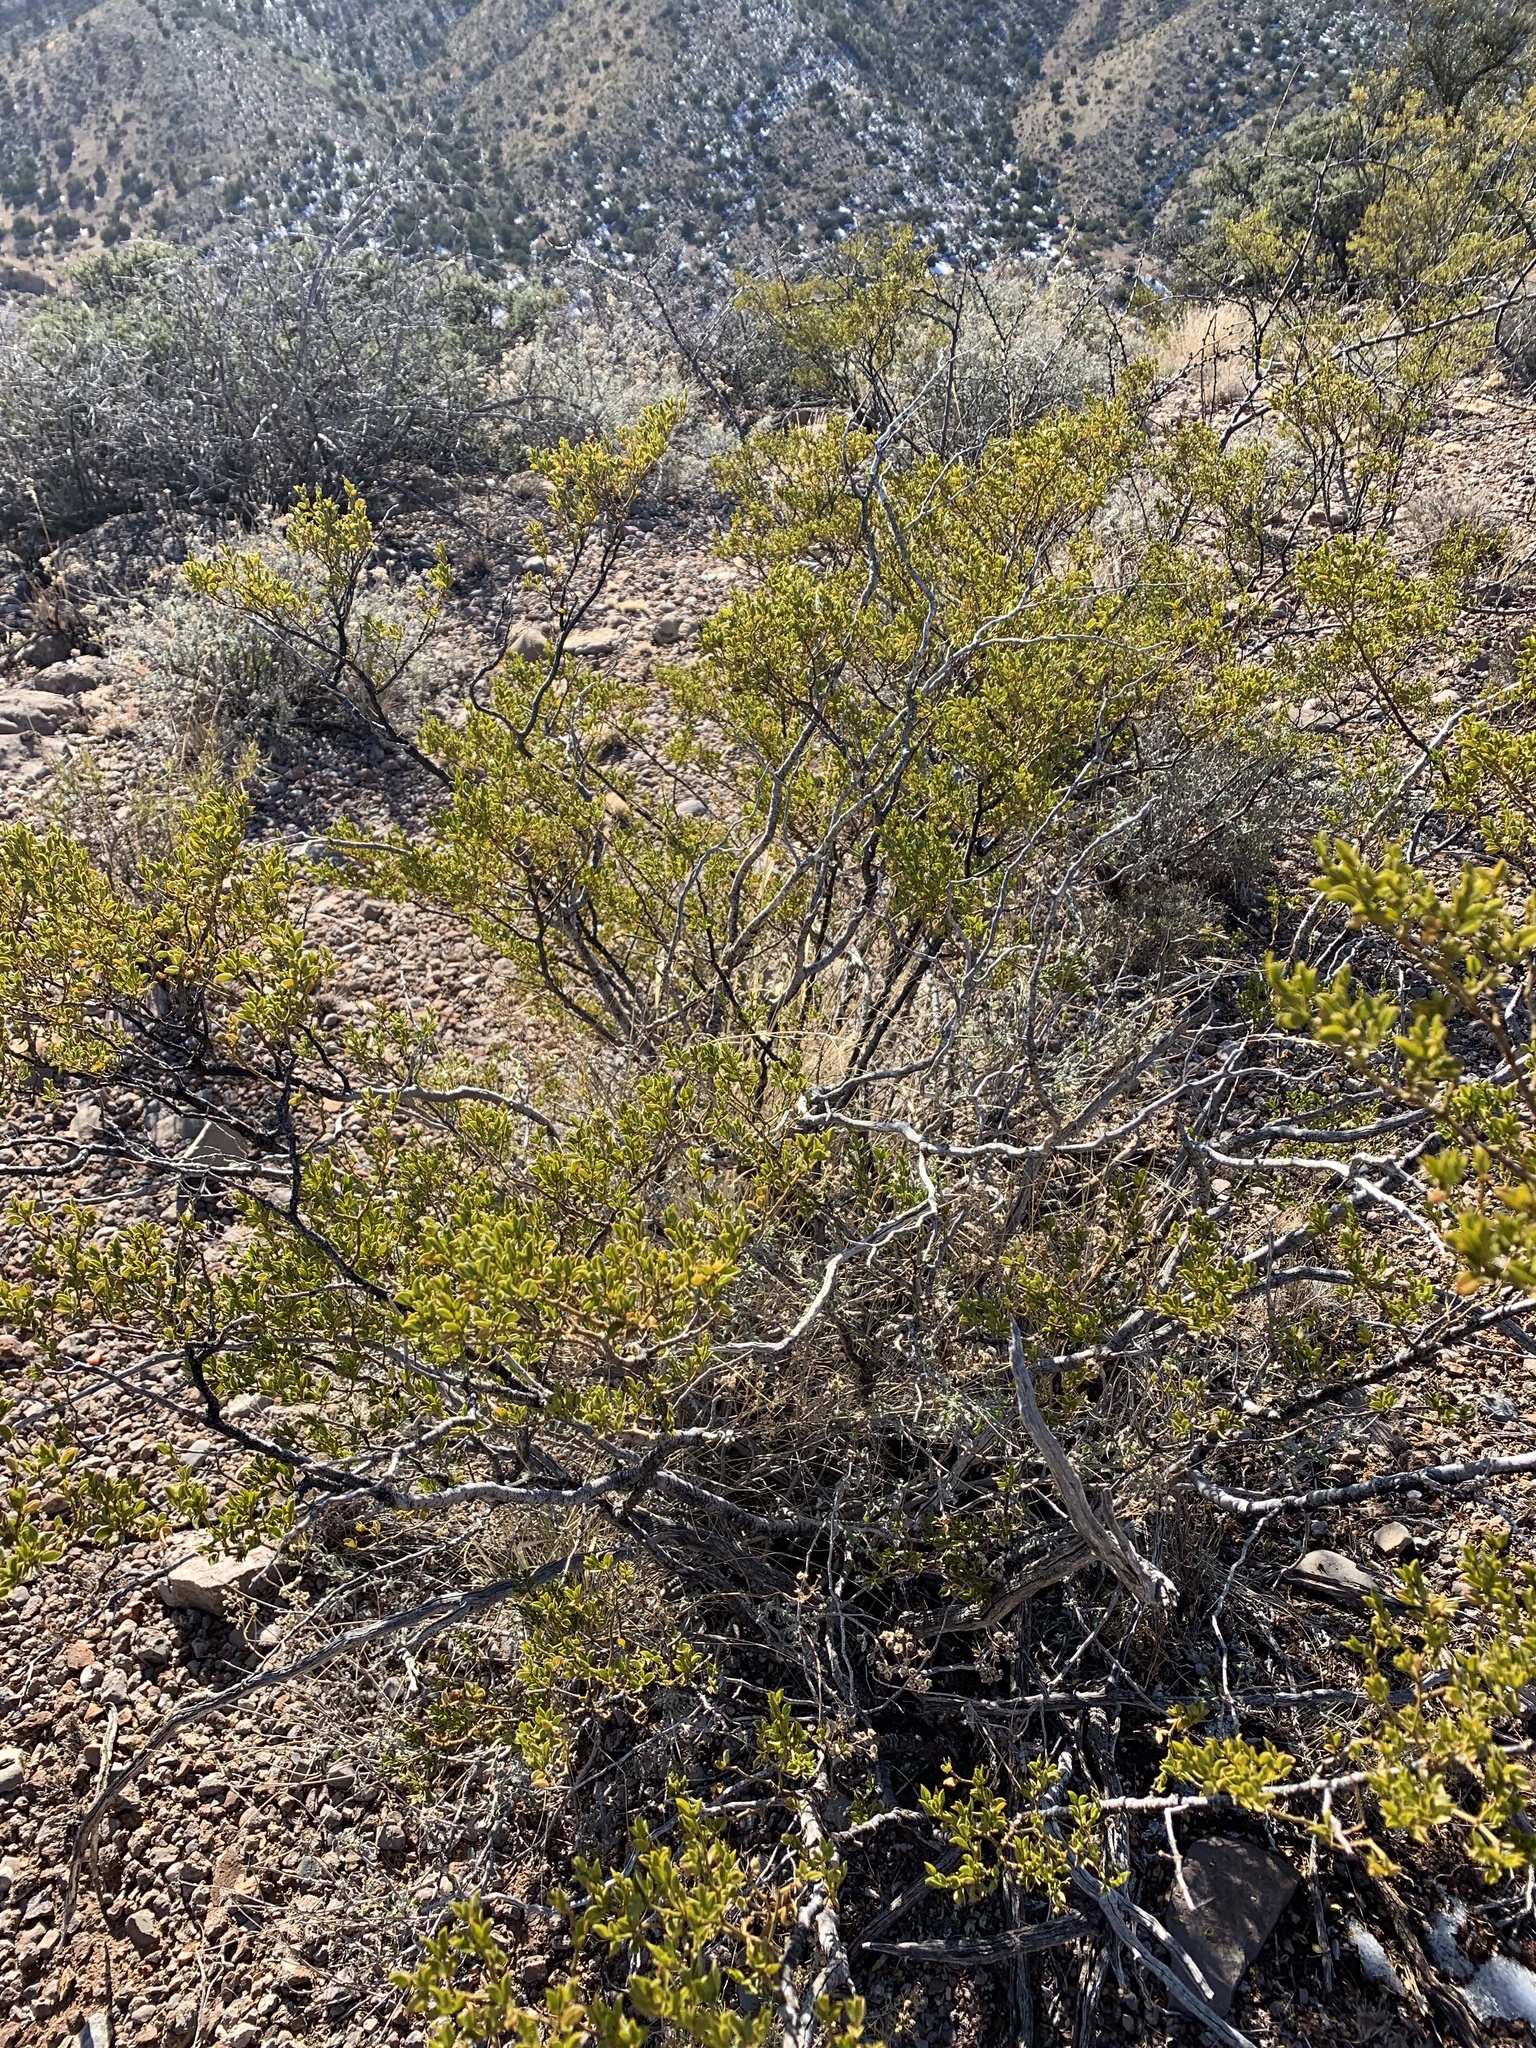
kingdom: Plantae
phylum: Tracheophyta
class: Magnoliopsida
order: Zygophyllales
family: Zygophyllaceae
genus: Larrea
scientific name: Larrea tridentata
